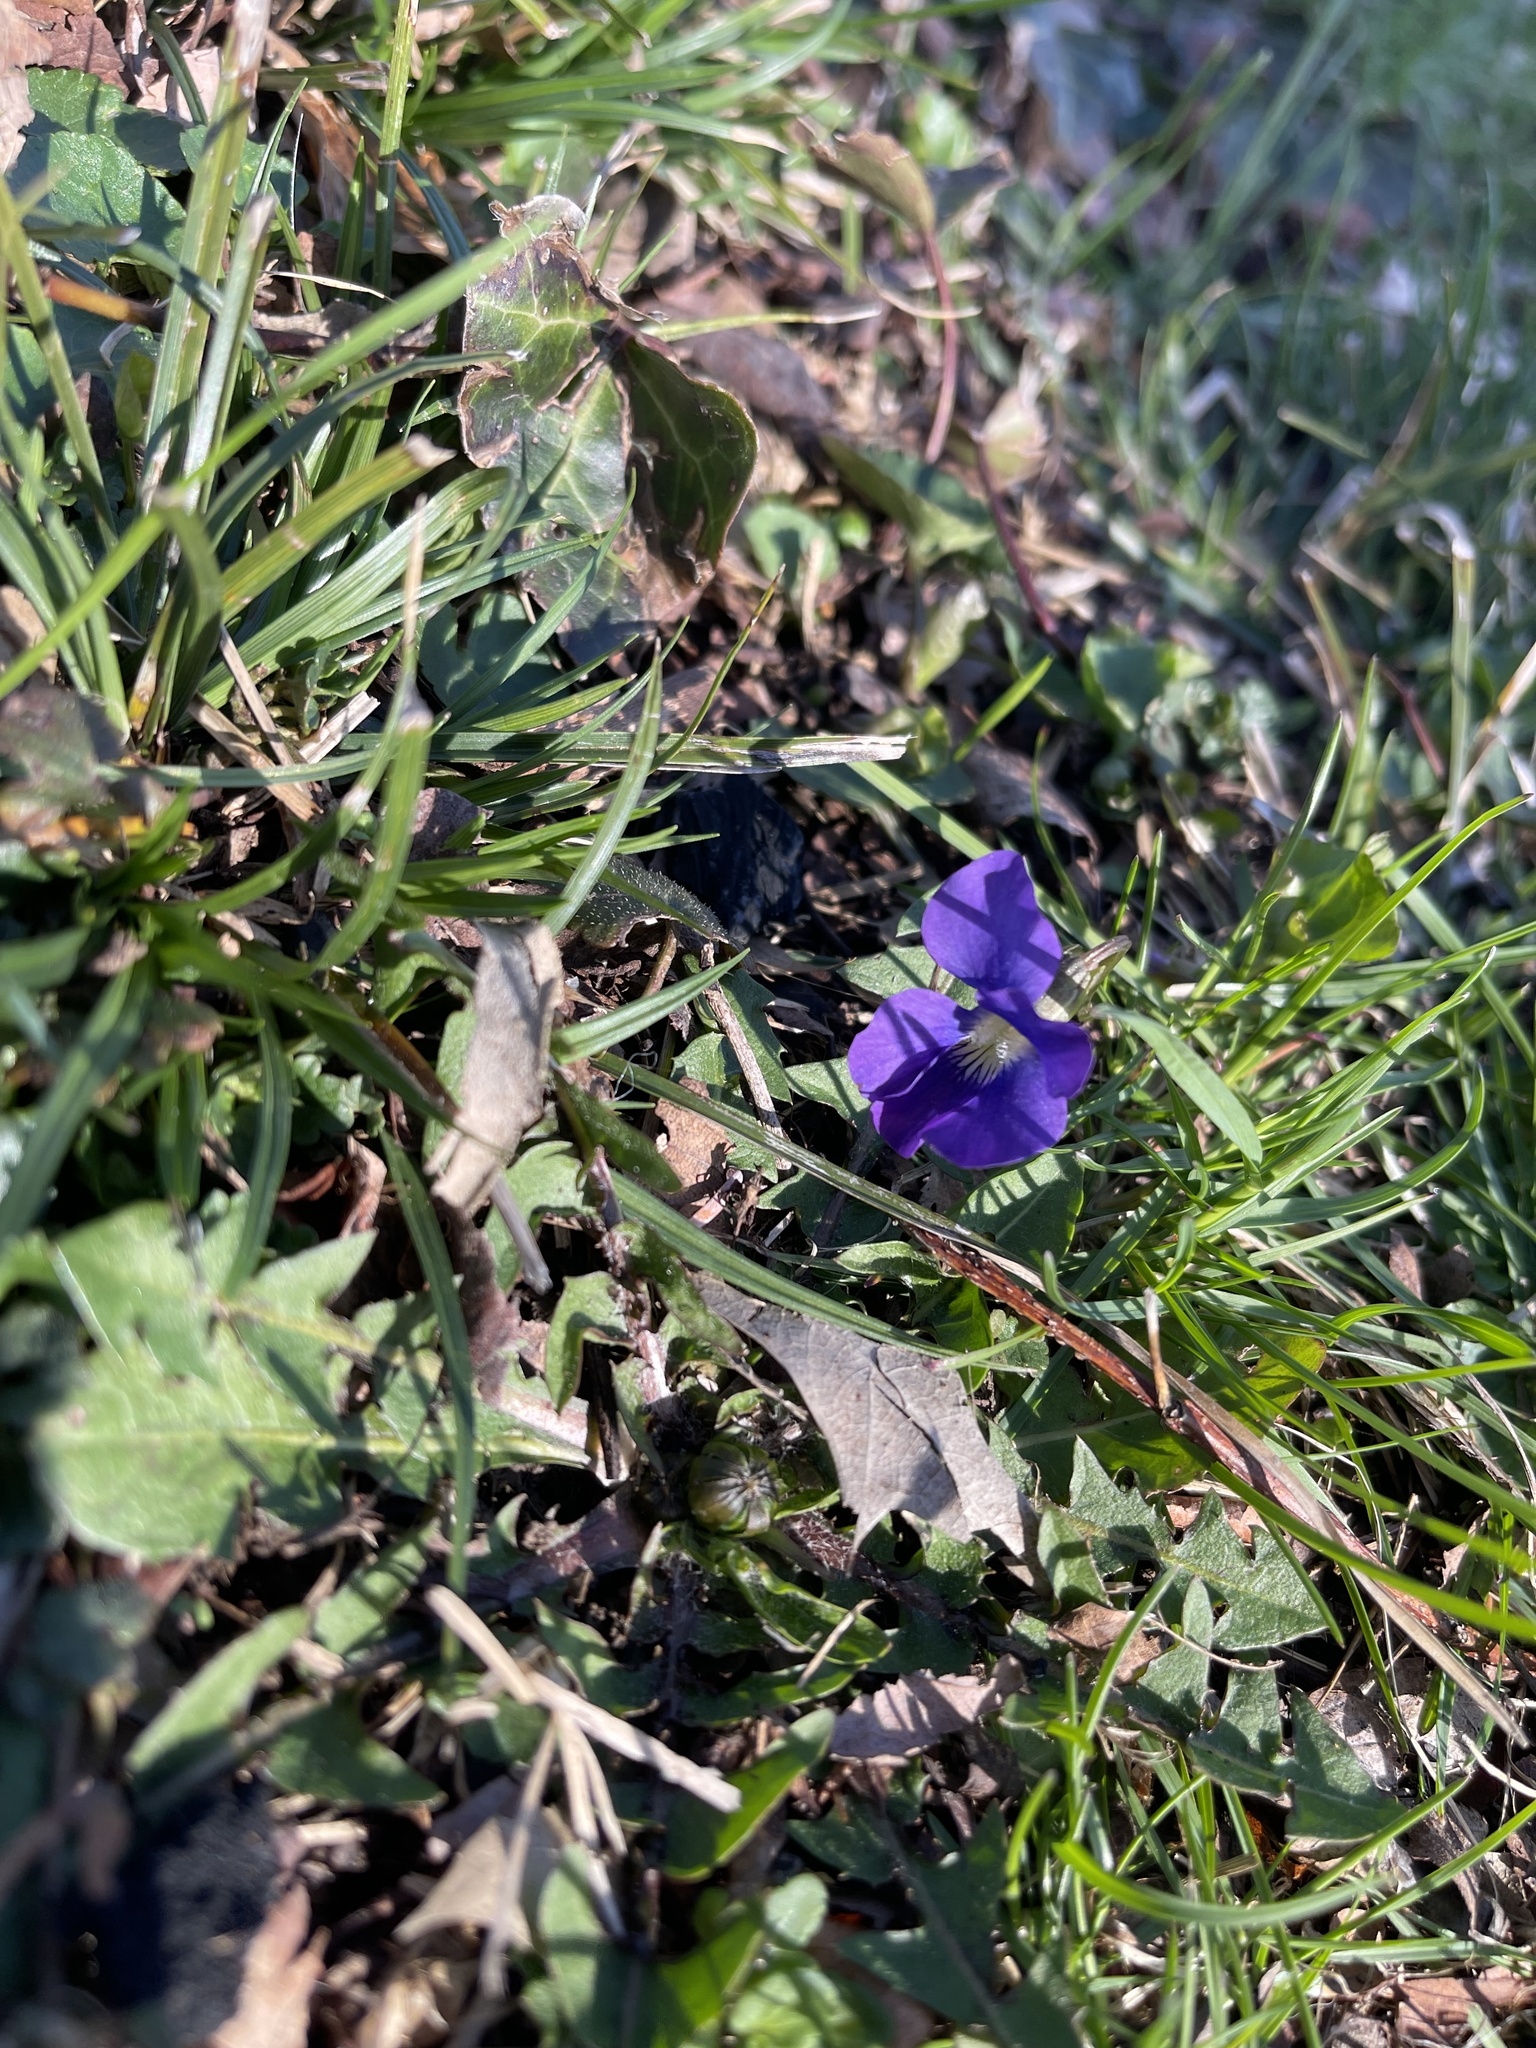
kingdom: Plantae
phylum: Tracheophyta
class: Magnoliopsida
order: Malpighiales
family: Violaceae
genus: Viola
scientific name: Viola sororia
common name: Dooryard violet
